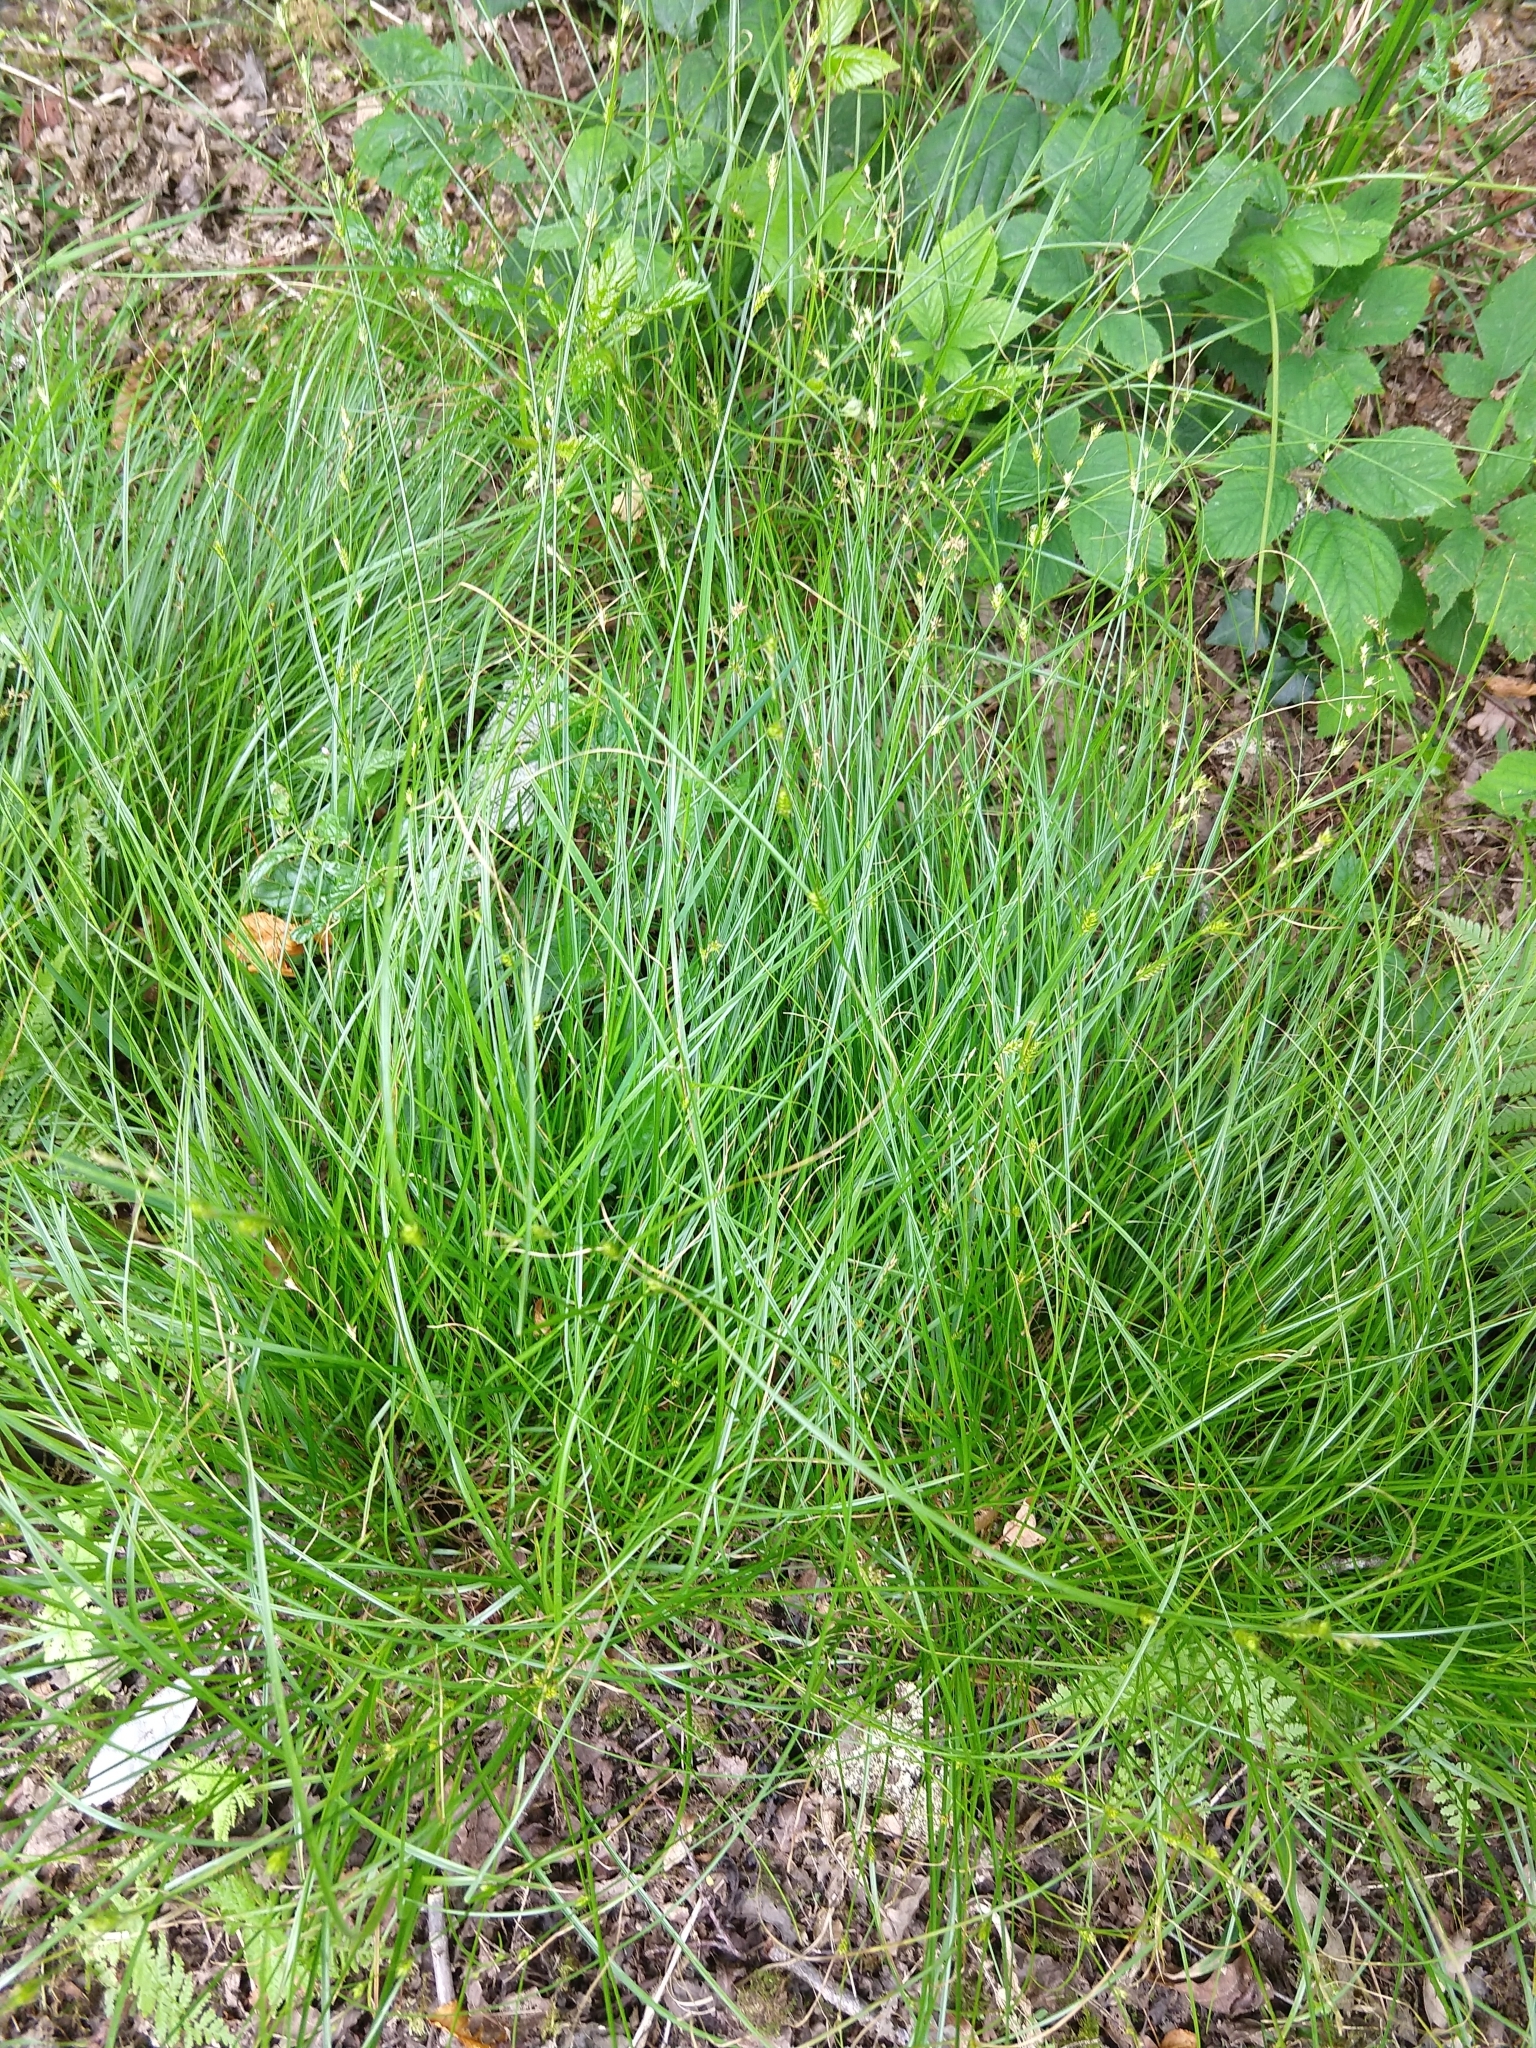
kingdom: Plantae
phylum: Tracheophyta
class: Liliopsida
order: Poales
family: Cyperaceae
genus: Carex
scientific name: Carex remota
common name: Remote sedge
